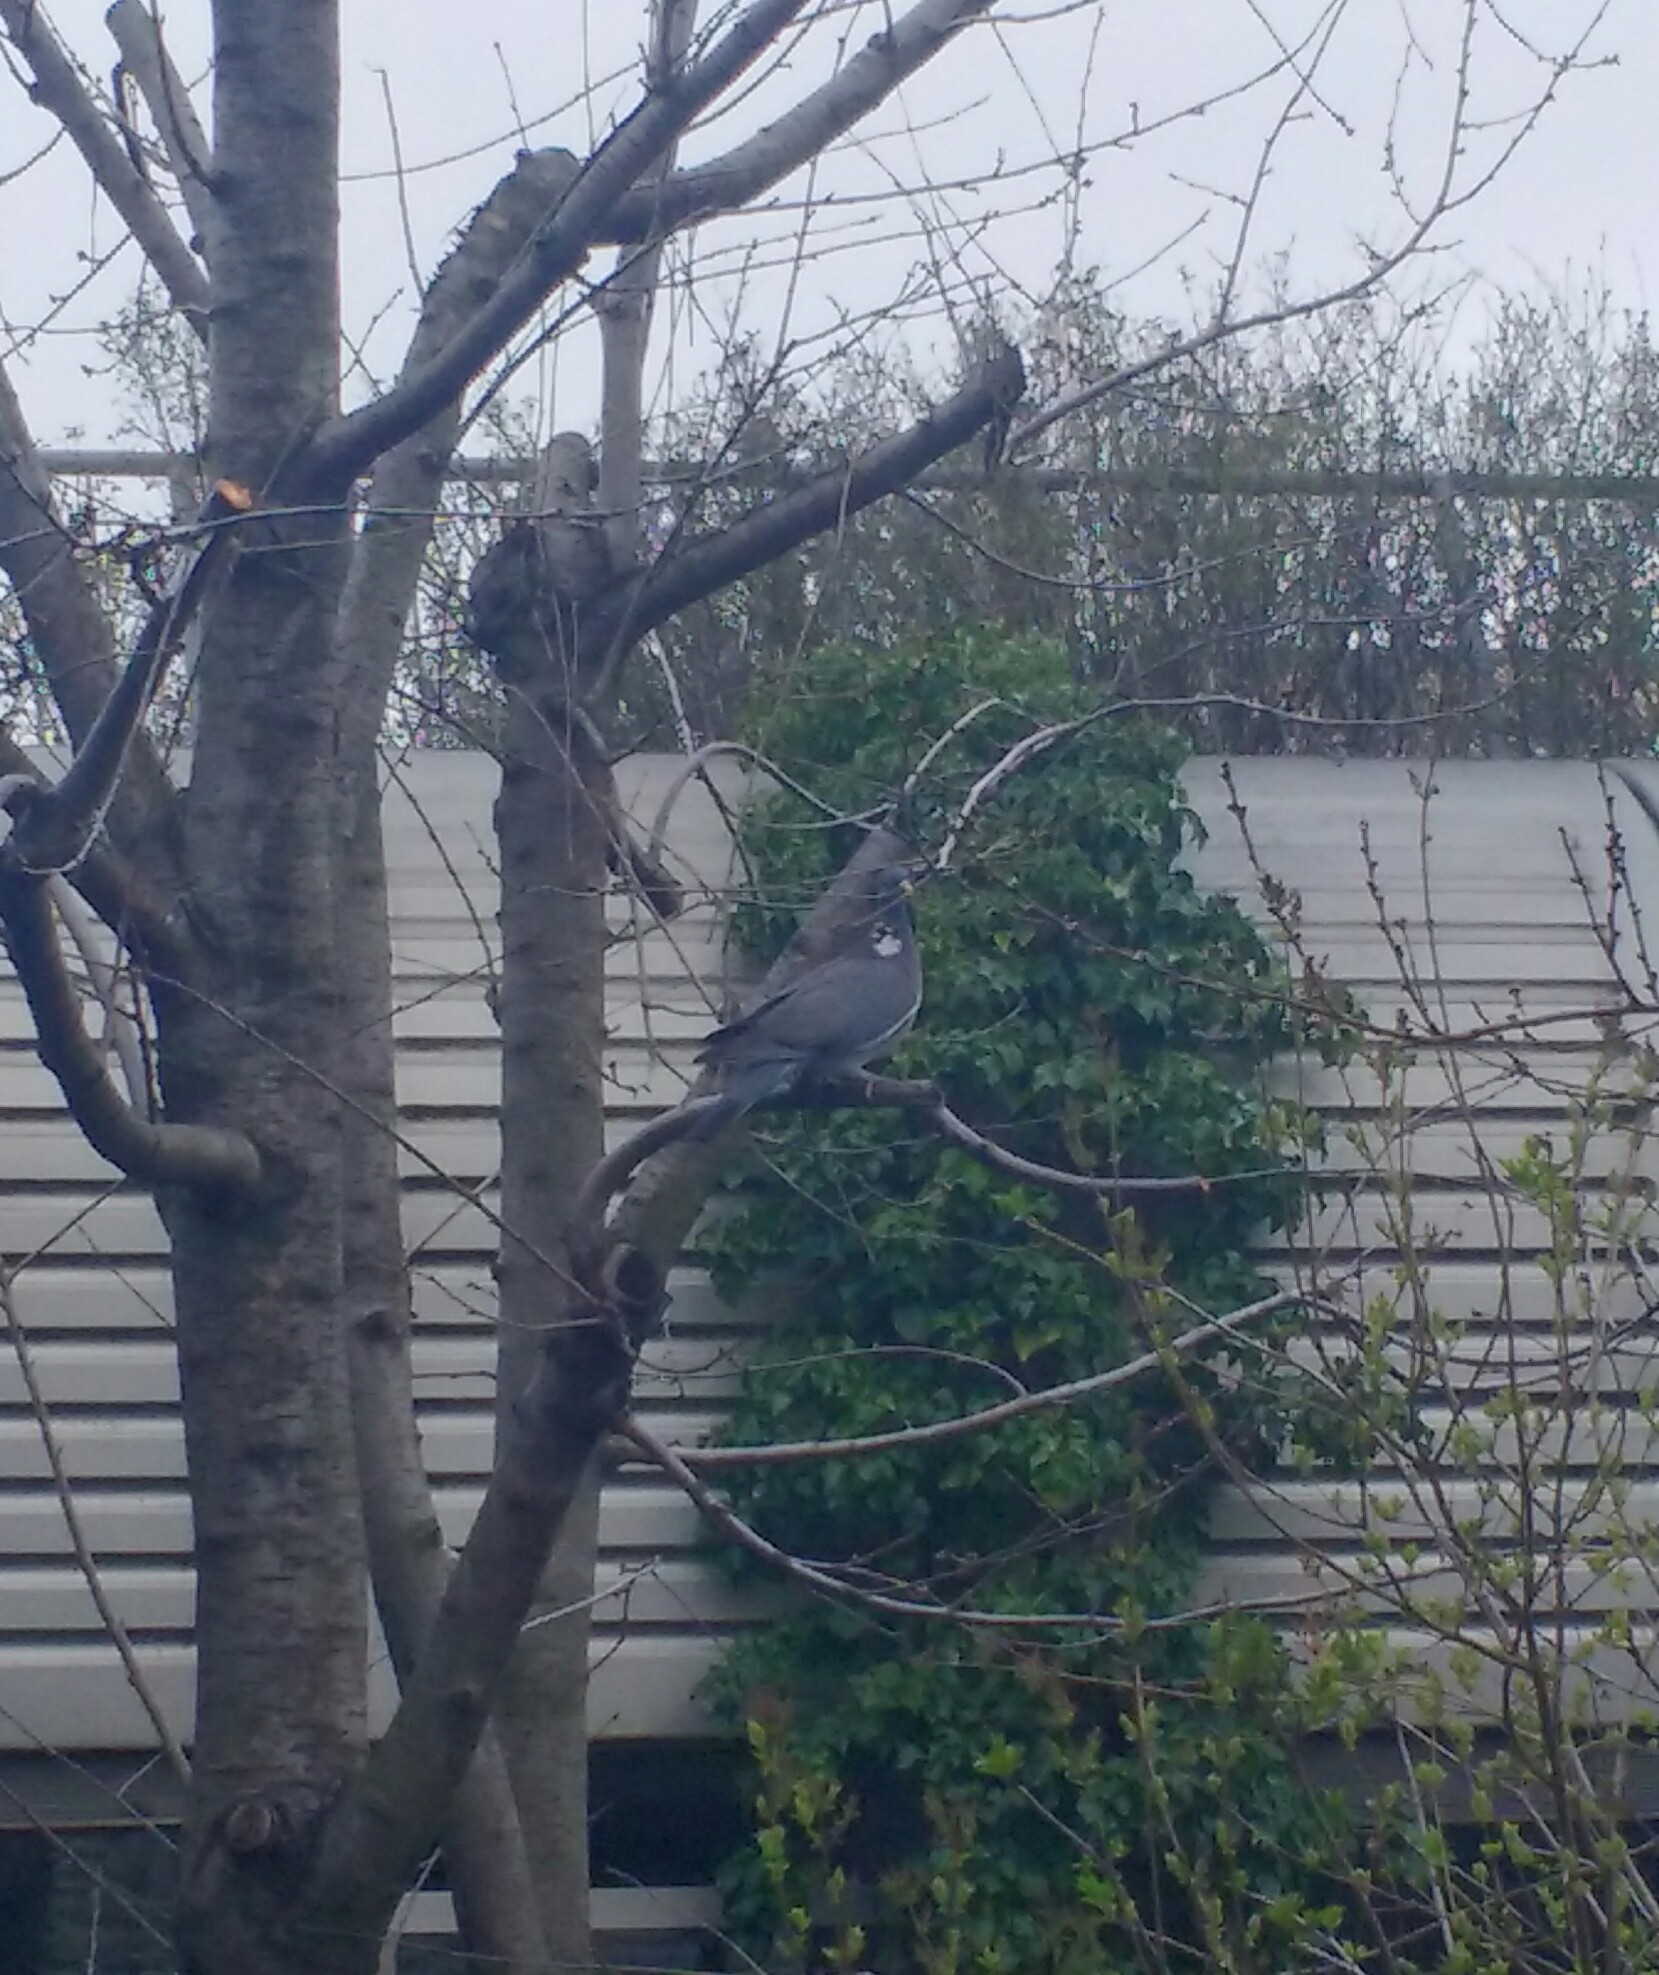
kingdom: Animalia
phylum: Chordata
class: Aves
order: Columbiformes
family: Columbidae
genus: Columba
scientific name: Columba palumbus
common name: Common wood pigeon
